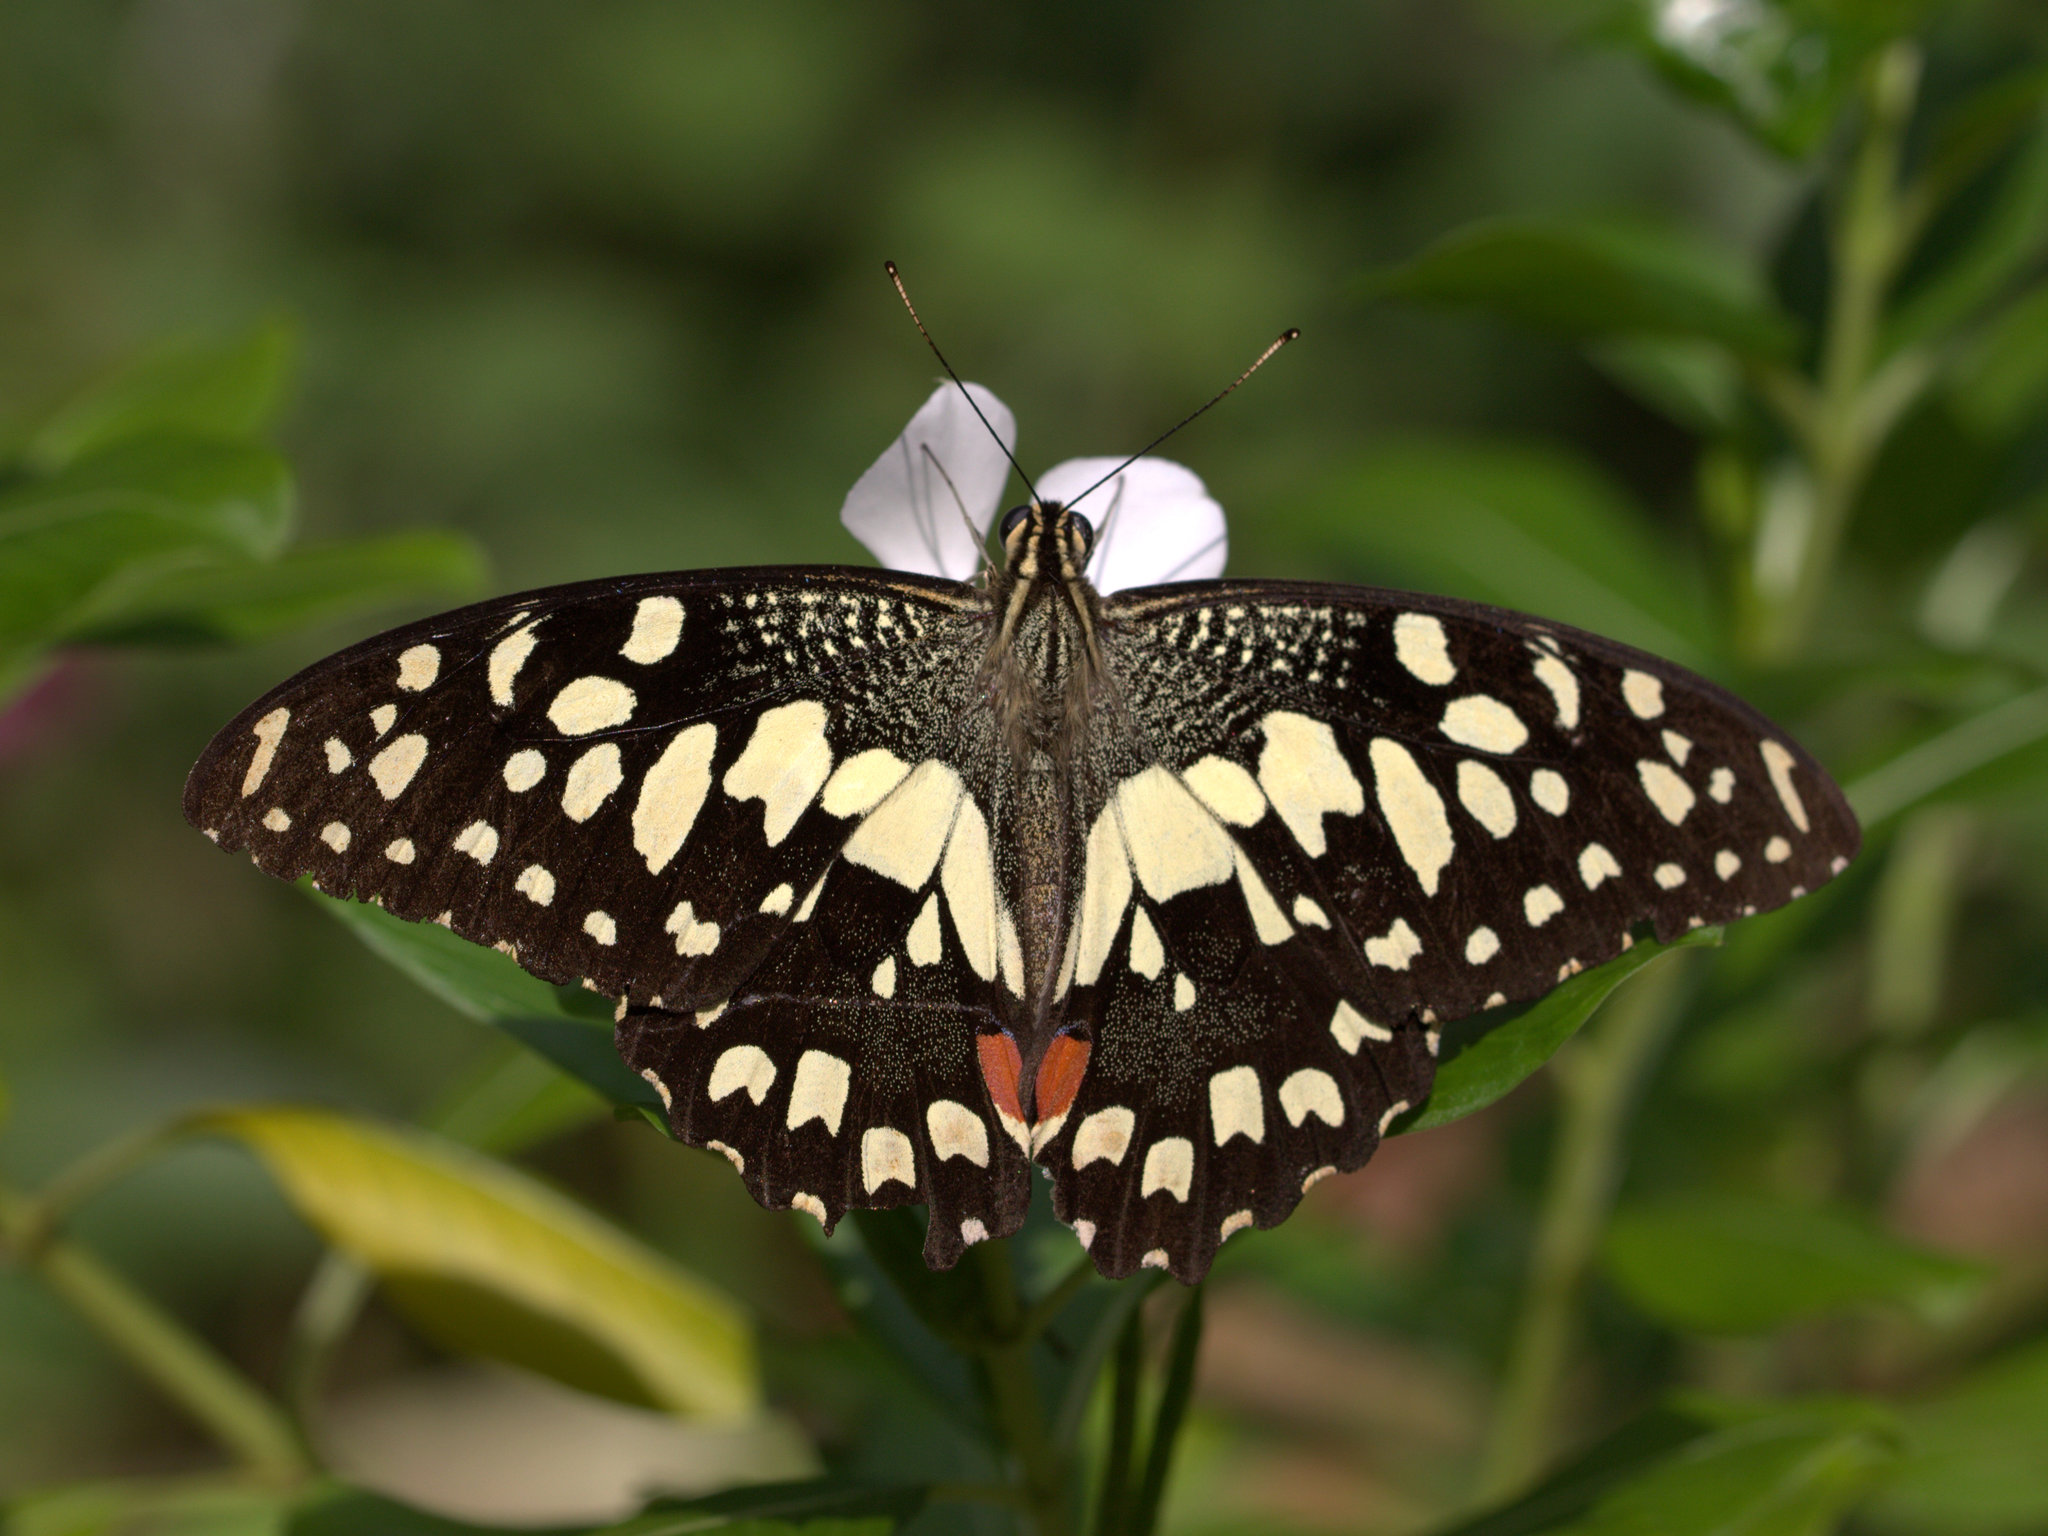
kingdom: Animalia
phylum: Arthropoda
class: Insecta
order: Lepidoptera
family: Papilionidae
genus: Papilio
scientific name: Papilio demoleus
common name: Lime butterfly
